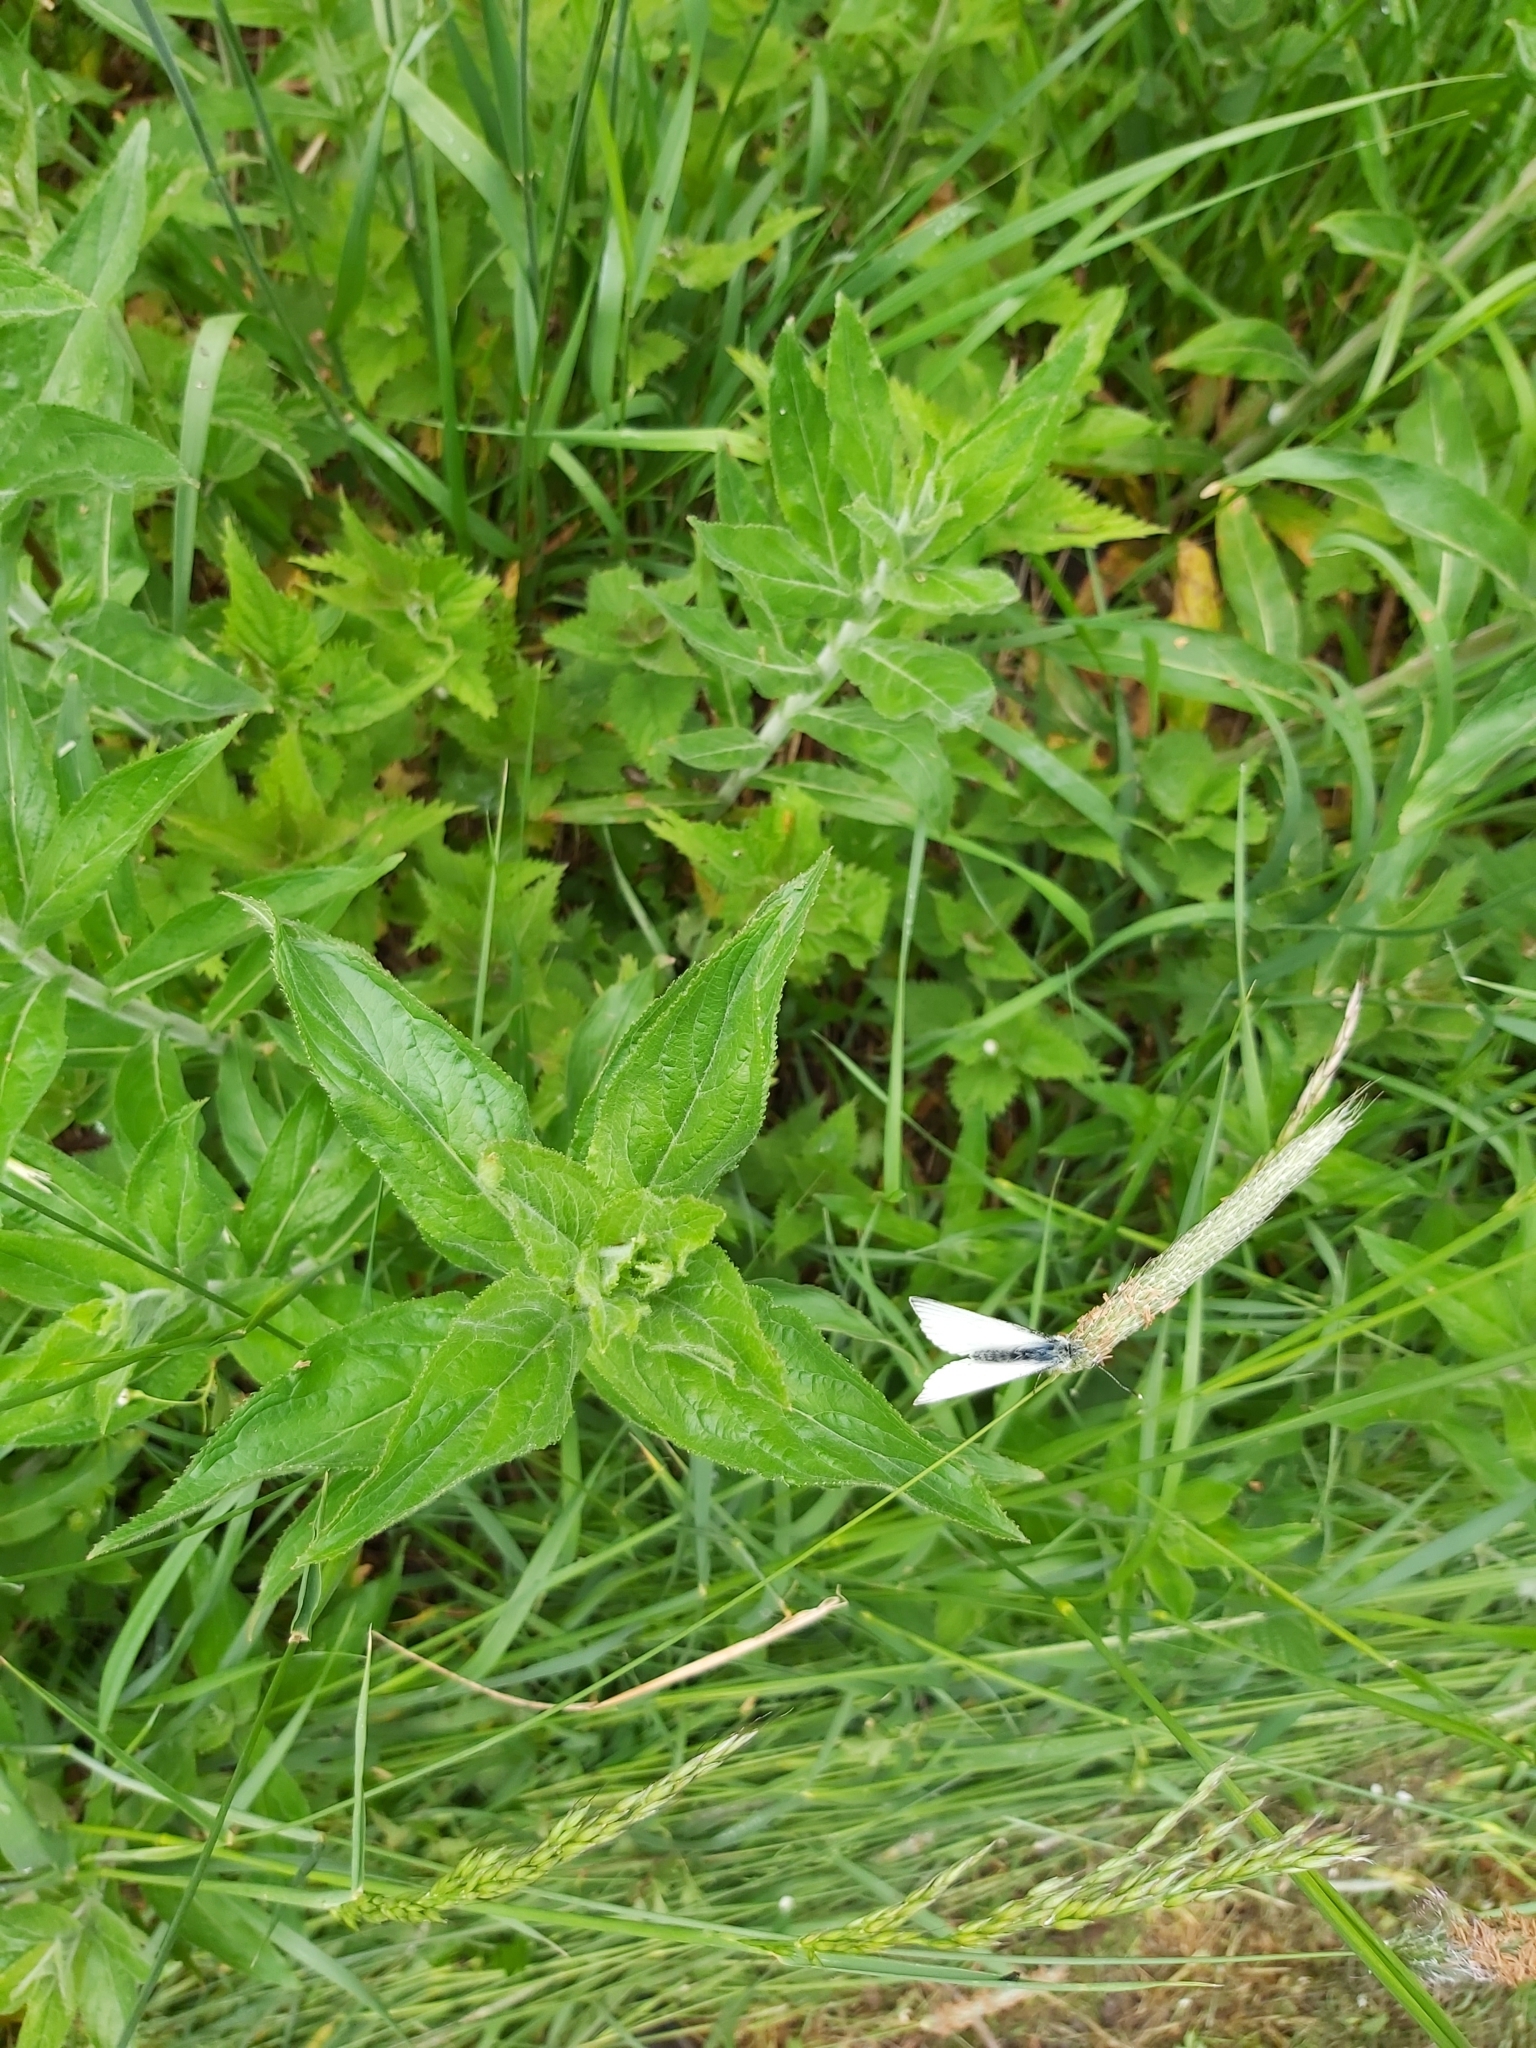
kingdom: Animalia
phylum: Arthropoda
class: Insecta
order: Lepidoptera
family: Pieridae
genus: Pieris
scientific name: Pieris napi
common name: Green-veined white
